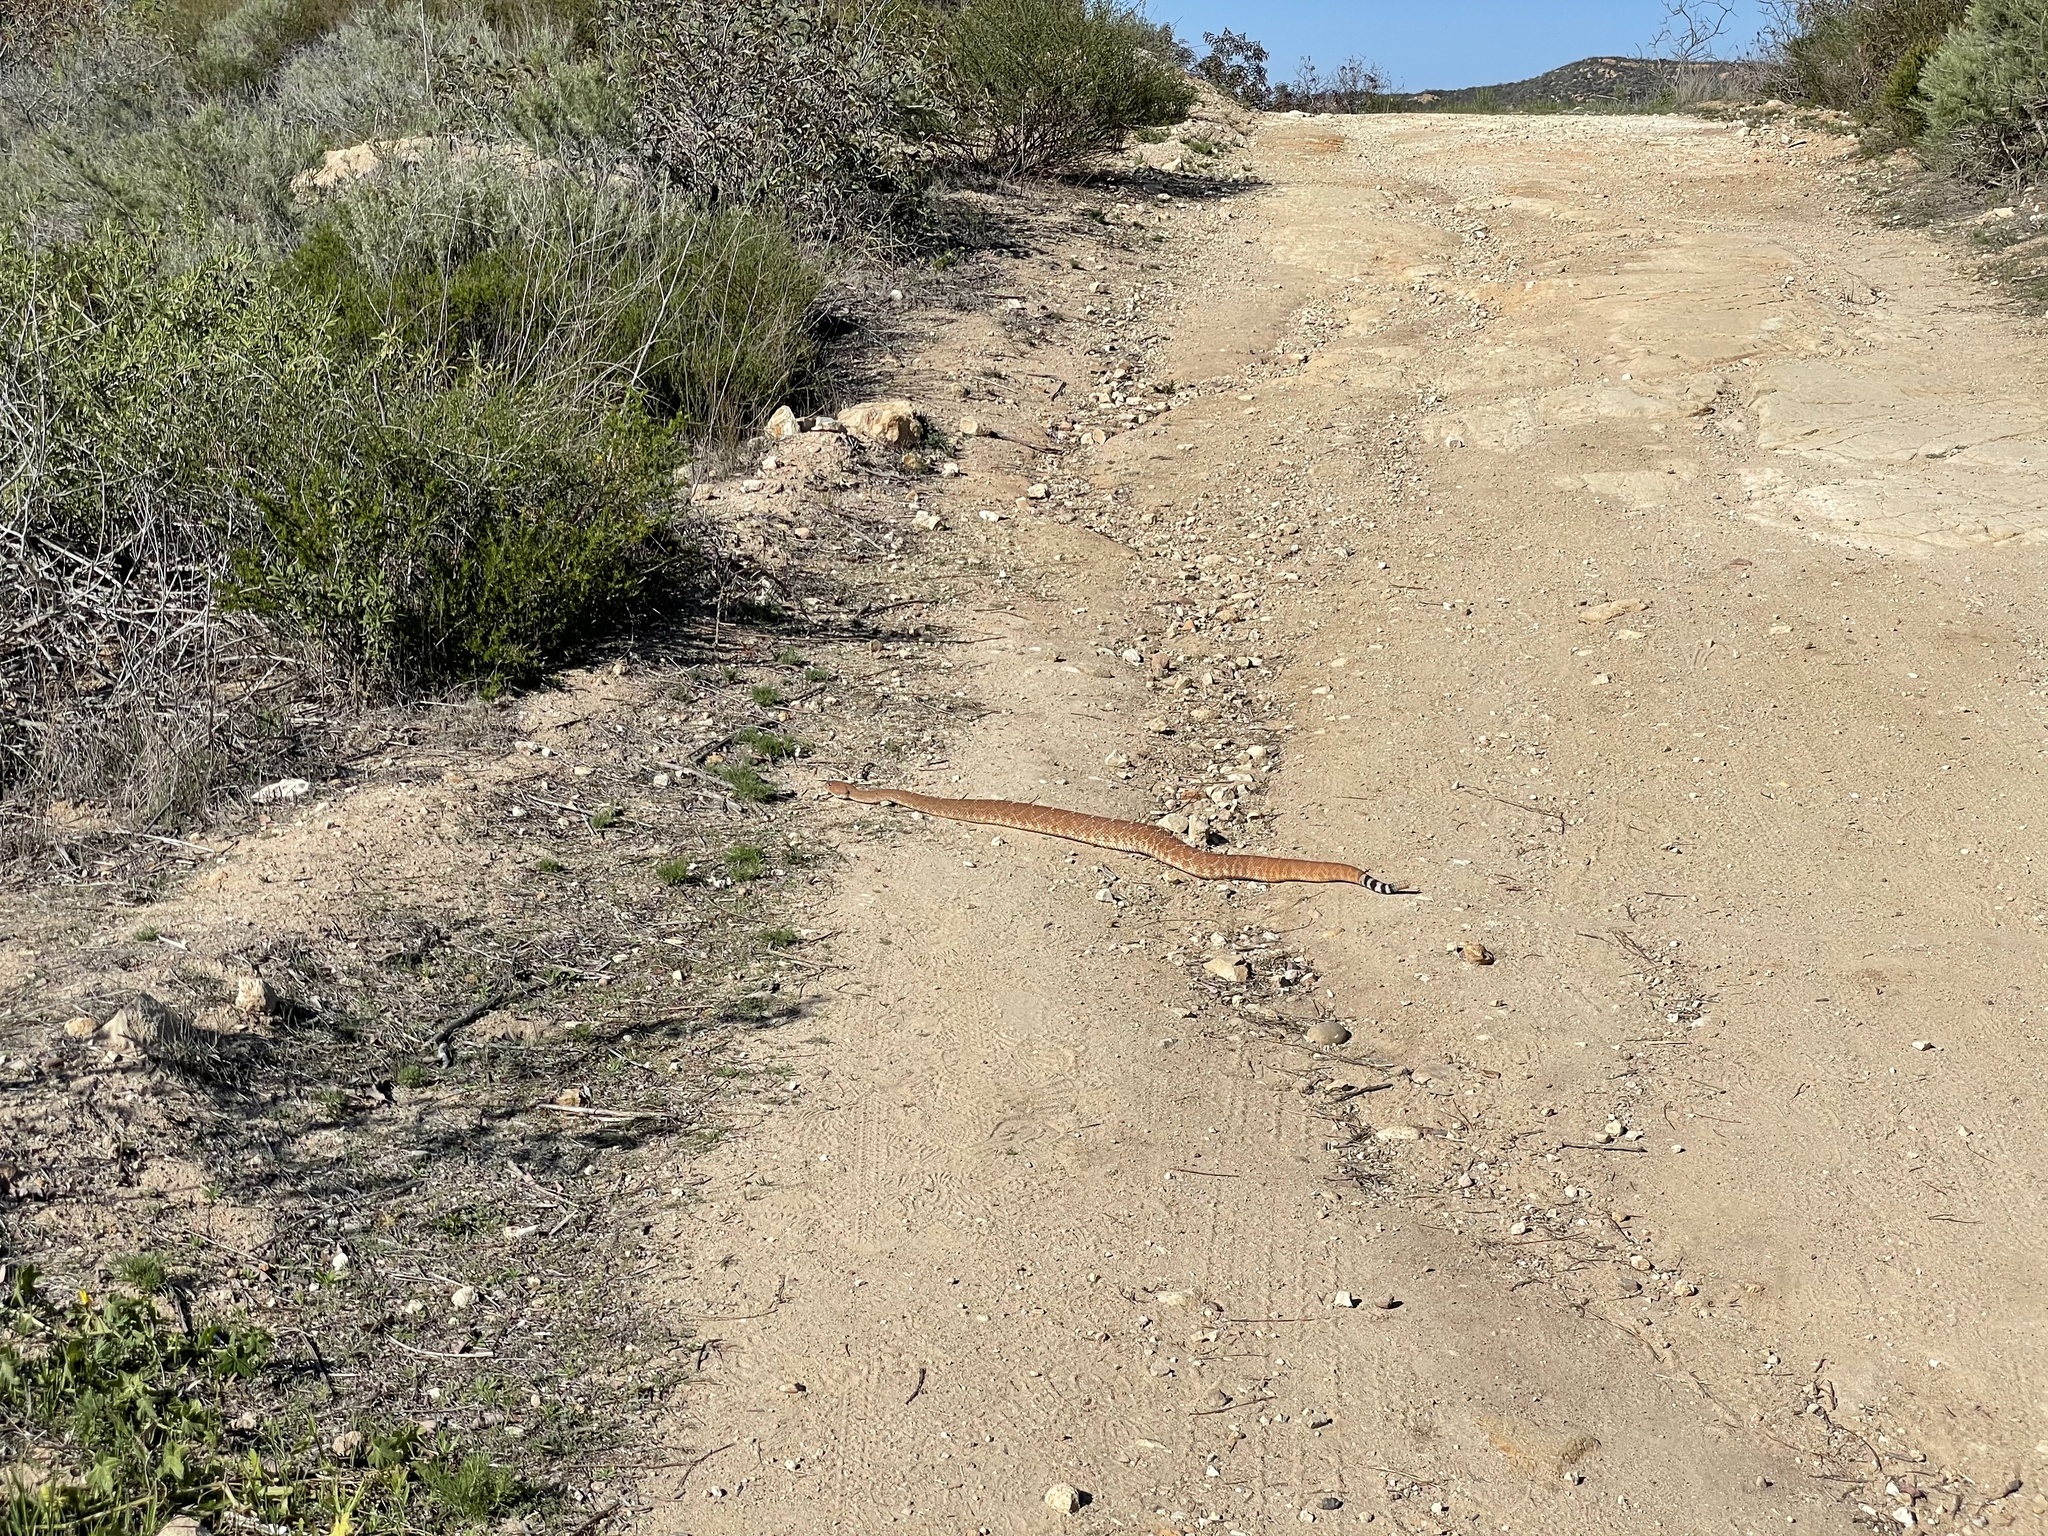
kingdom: Animalia
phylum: Chordata
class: Squamata
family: Viperidae
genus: Crotalus
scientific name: Crotalus ruber
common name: Red diamond rattlesnake
